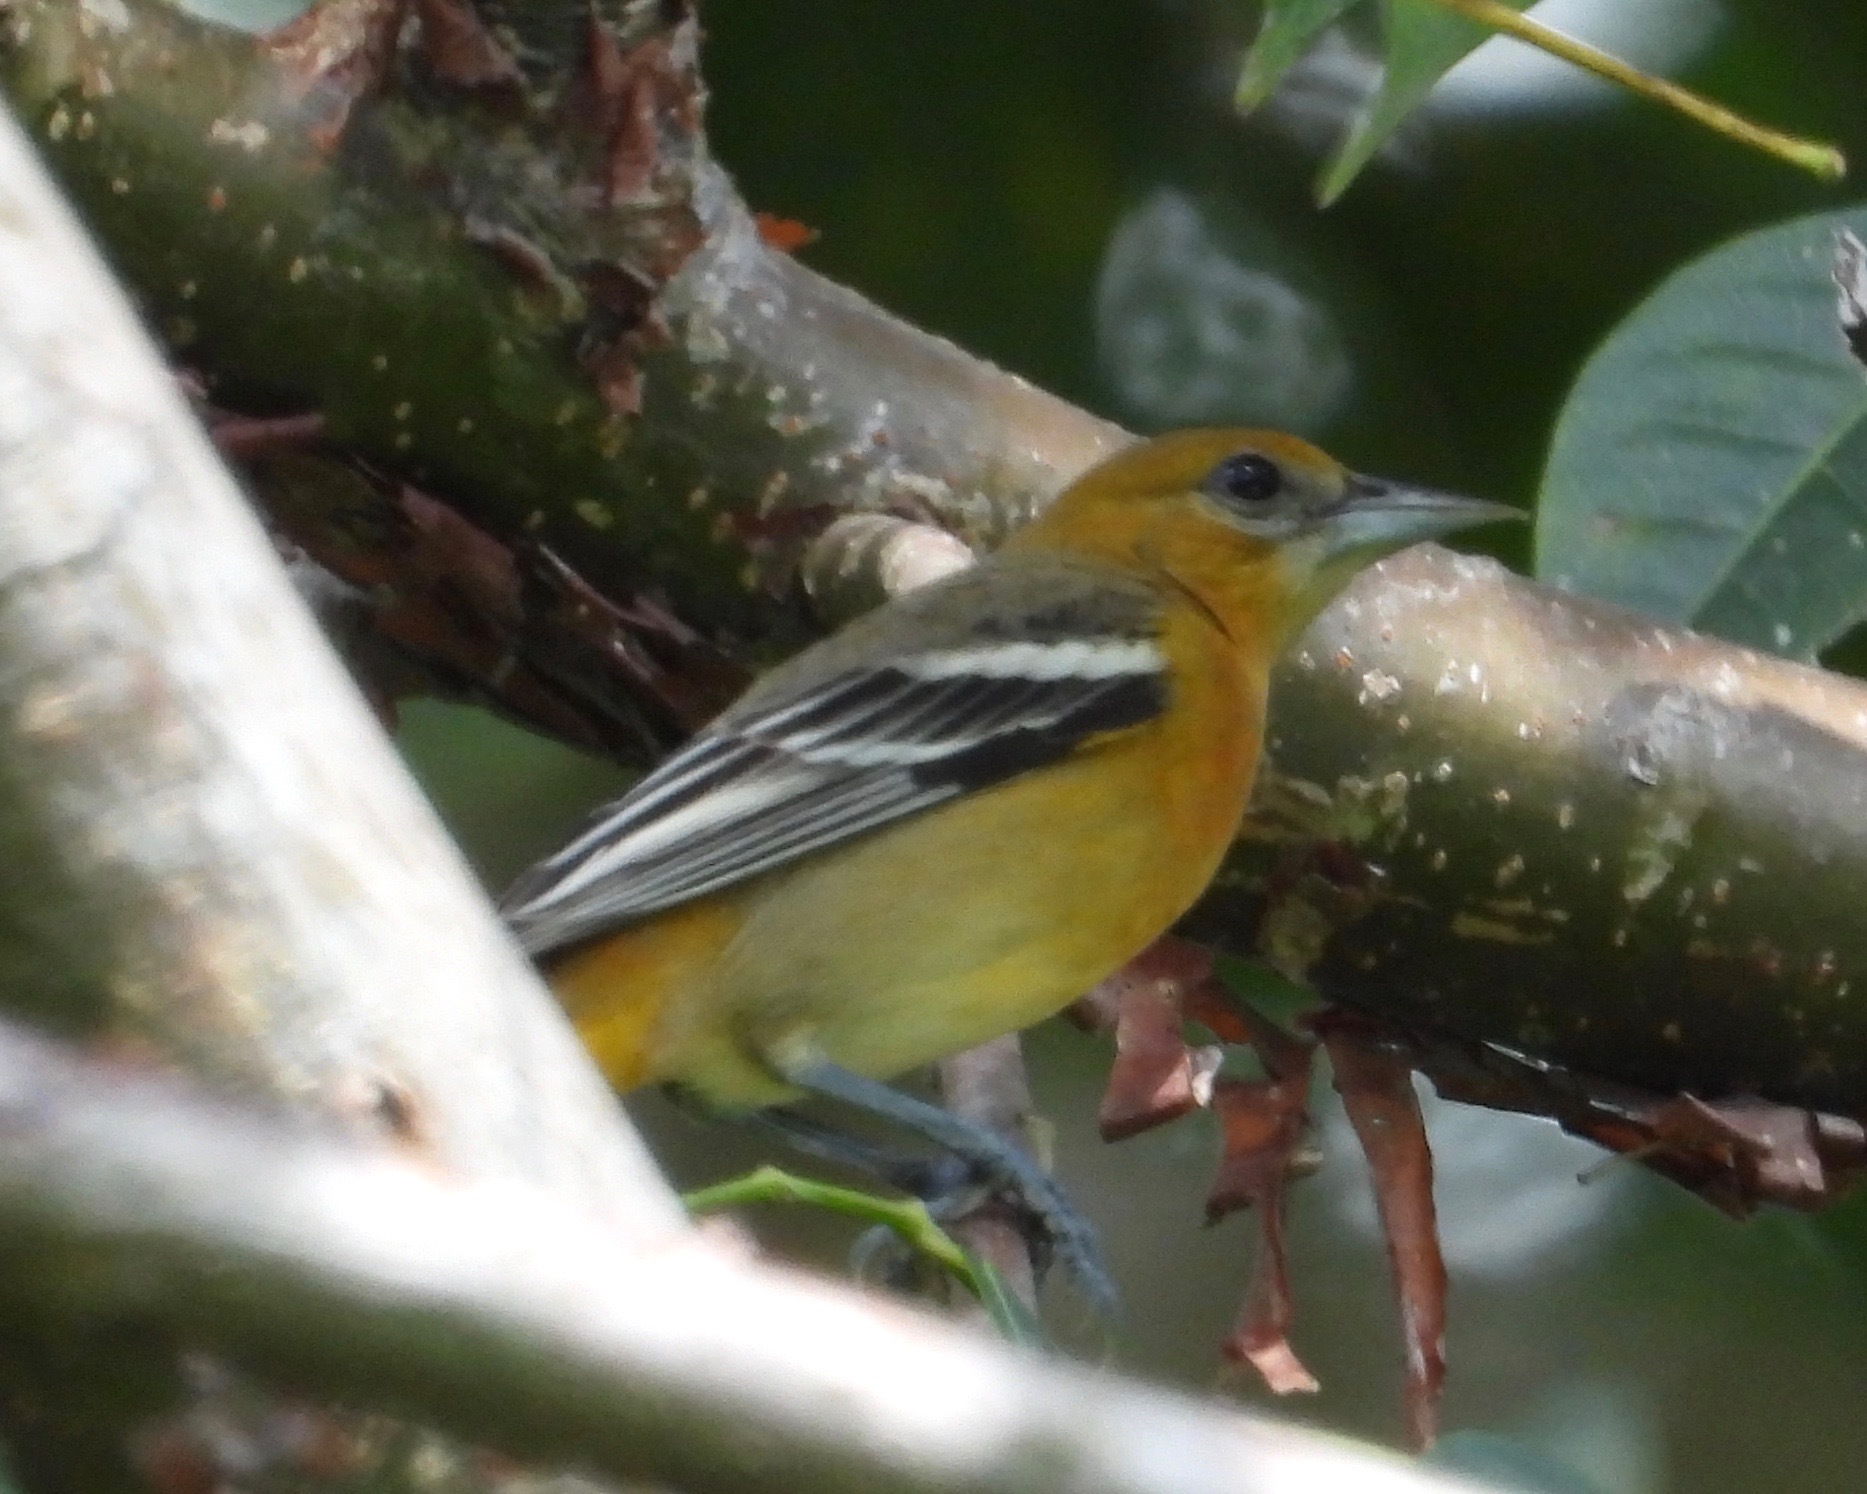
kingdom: Animalia
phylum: Chordata
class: Aves
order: Passeriformes
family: Icteridae
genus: Icterus
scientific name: Icterus galbula
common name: Baltimore oriole
